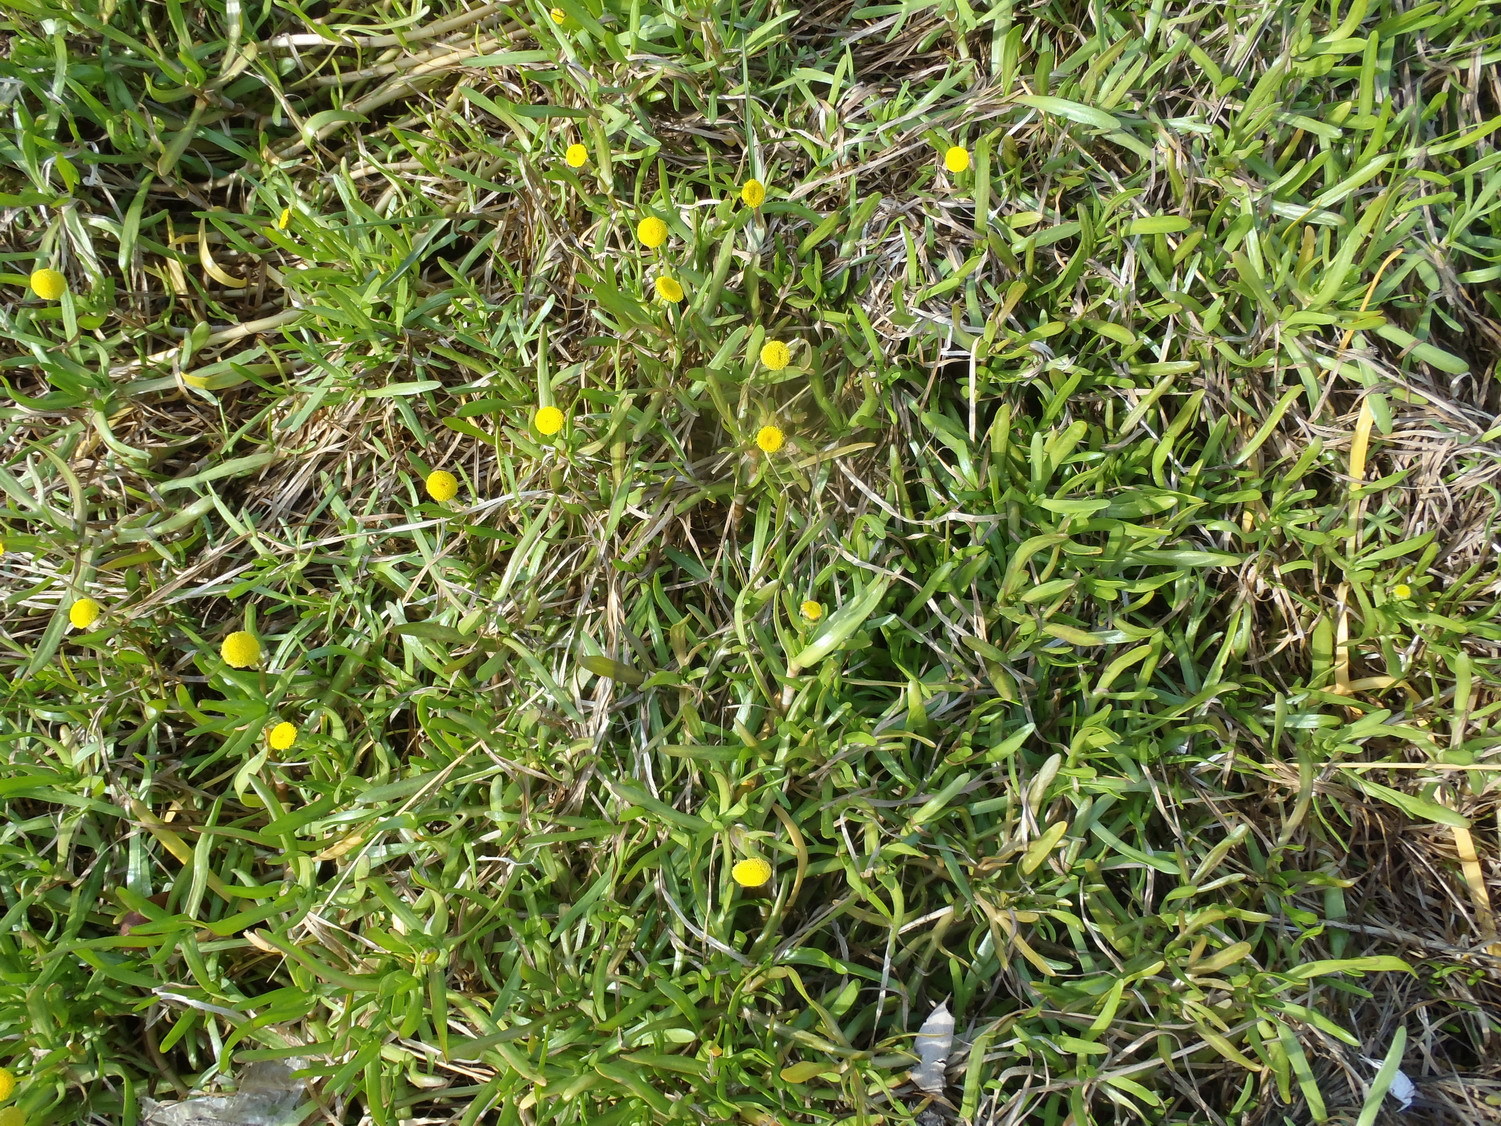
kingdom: Plantae
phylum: Tracheophyta
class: Magnoliopsida
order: Asterales
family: Asteraceae
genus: Cotula
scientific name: Cotula coronopifolia
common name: Buttonweed
